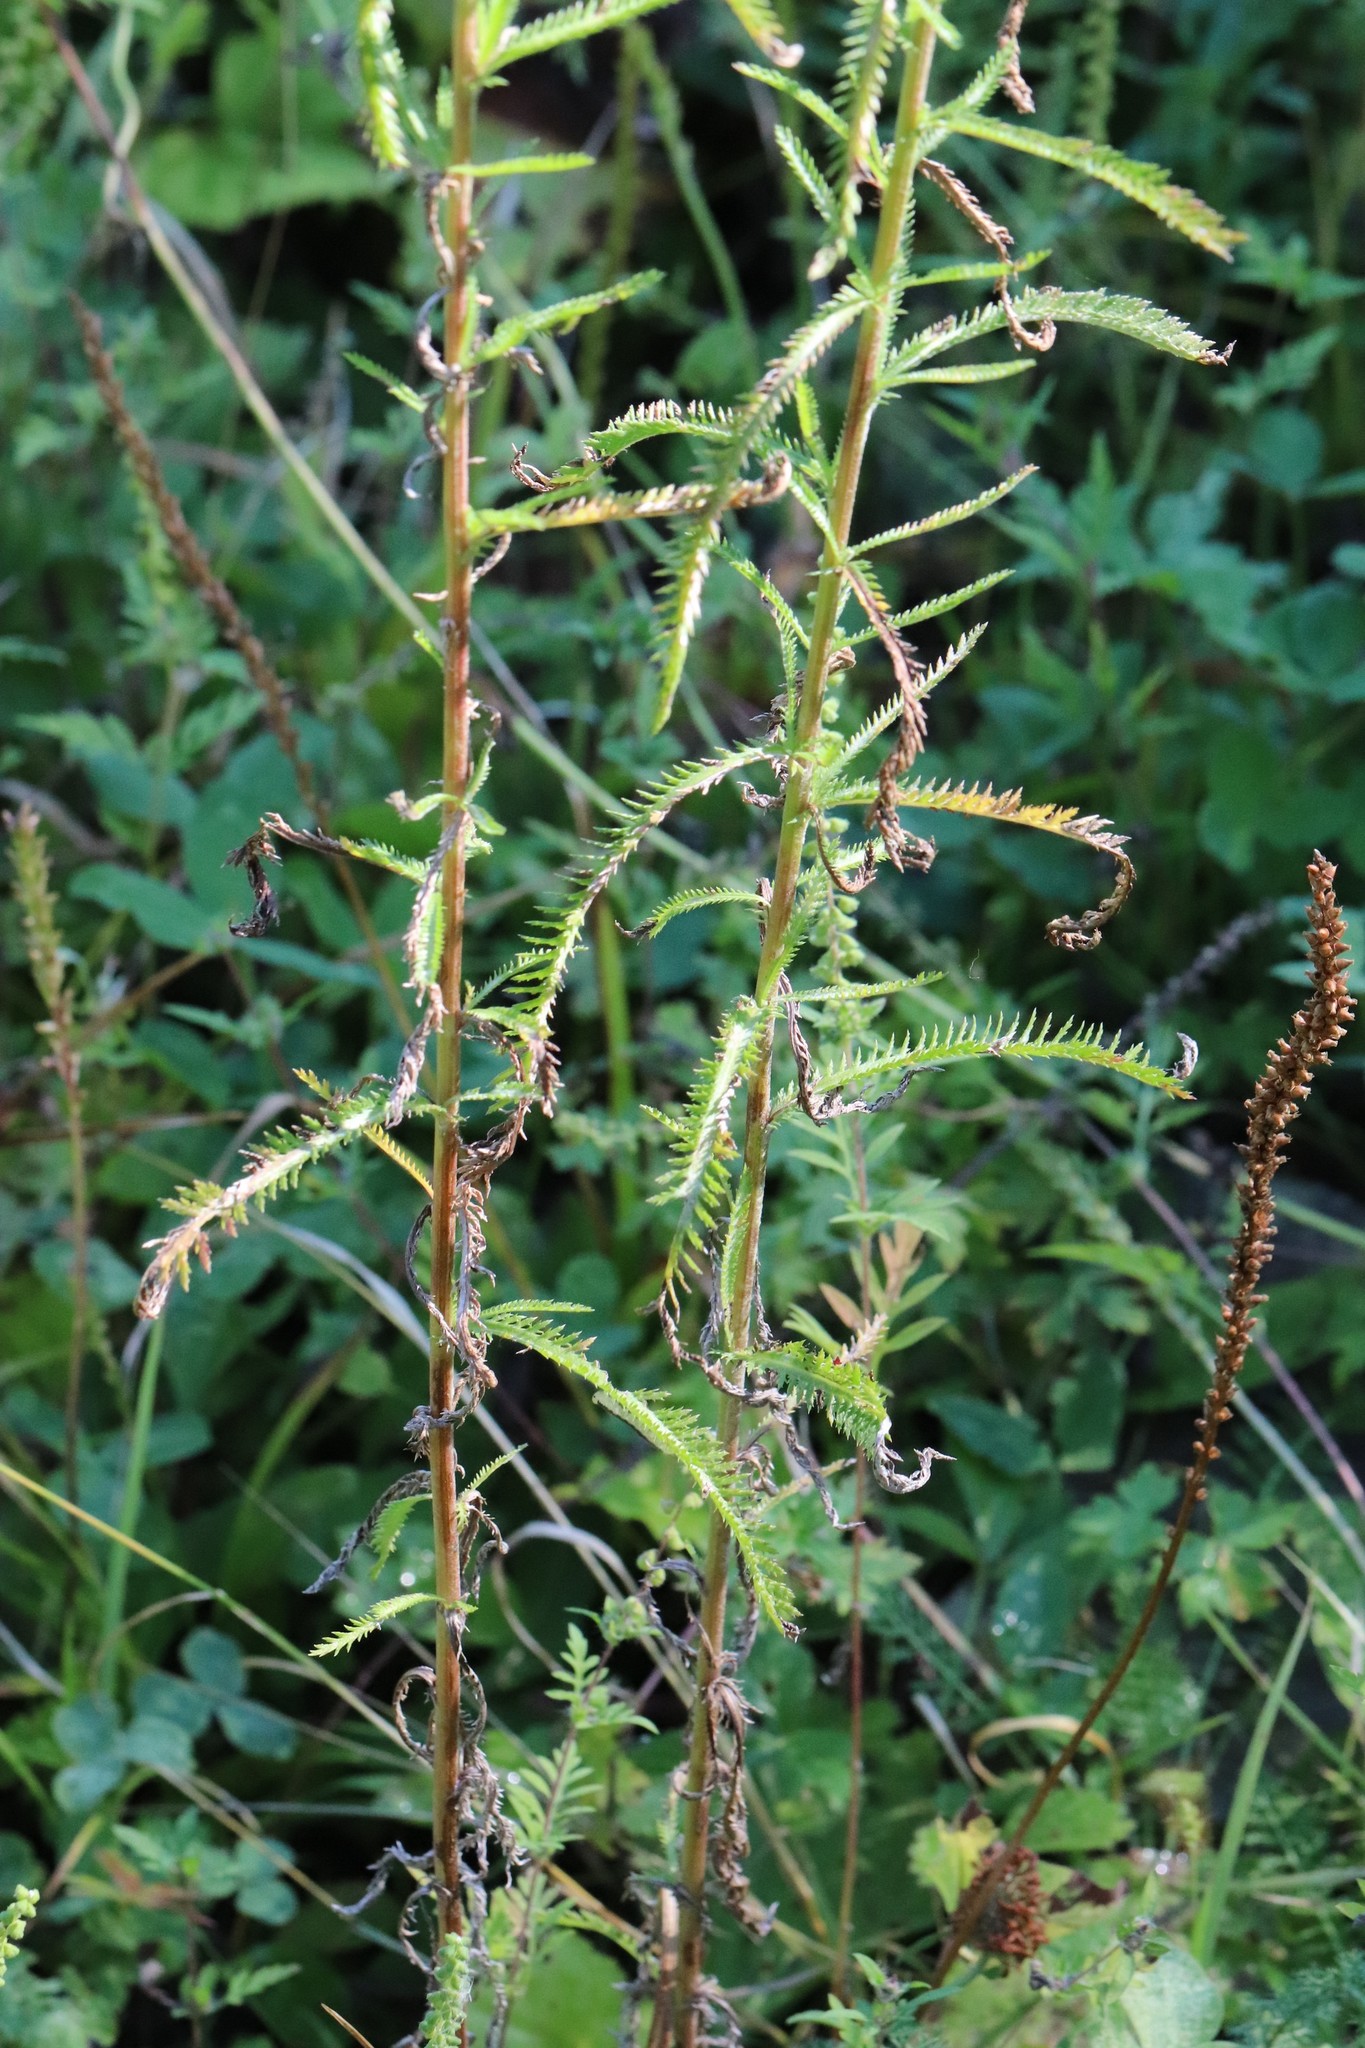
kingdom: Plantae
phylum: Tracheophyta
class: Magnoliopsida
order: Asterales
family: Asteraceae
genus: Achillea
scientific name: Achillea ptarmicoides
